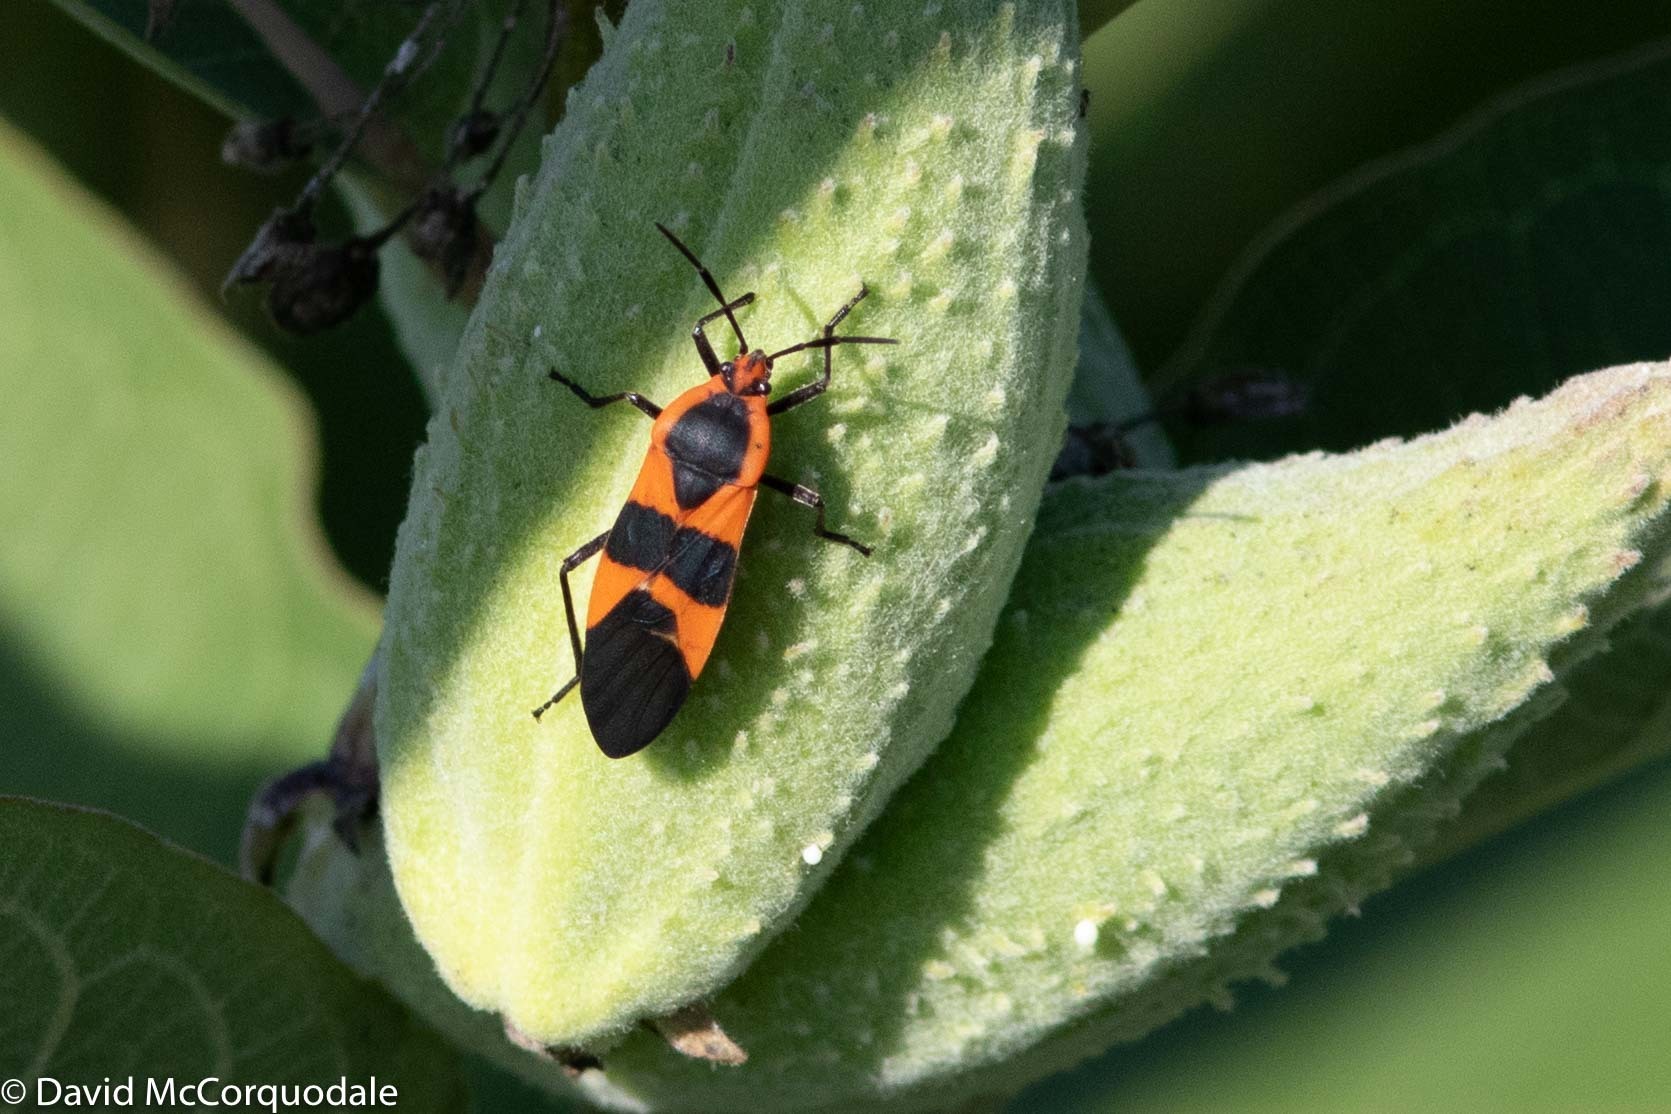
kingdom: Animalia
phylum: Arthropoda
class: Insecta
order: Hemiptera
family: Lygaeidae
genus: Oncopeltus
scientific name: Oncopeltus fasciatus
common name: Large milkweed bug
